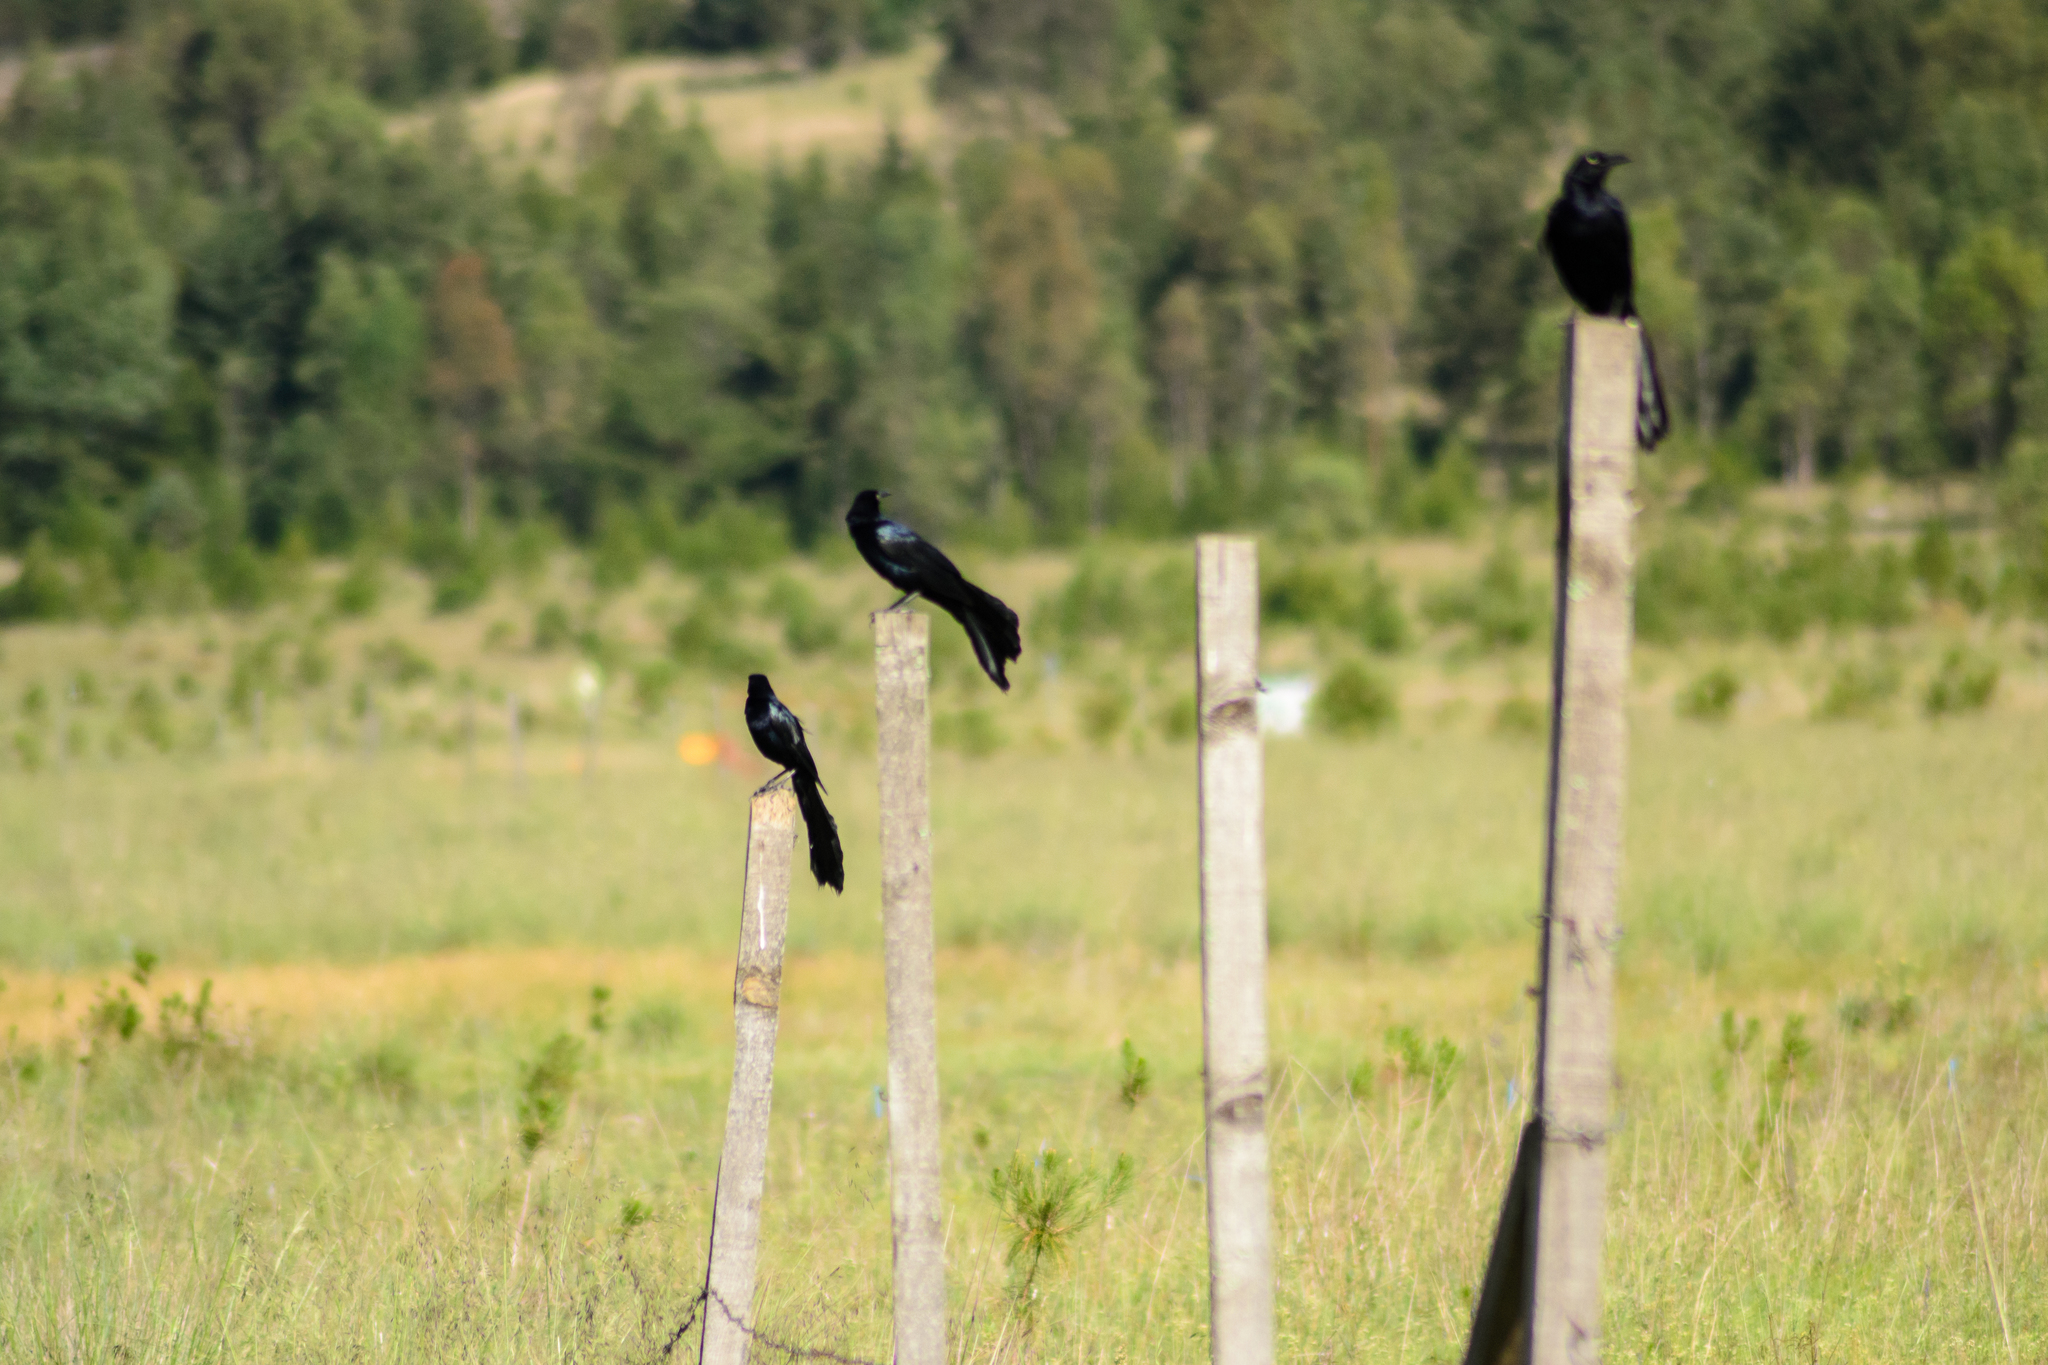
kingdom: Animalia
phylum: Chordata
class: Aves
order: Passeriformes
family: Icteridae
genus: Quiscalus
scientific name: Quiscalus mexicanus
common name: Great-tailed grackle
